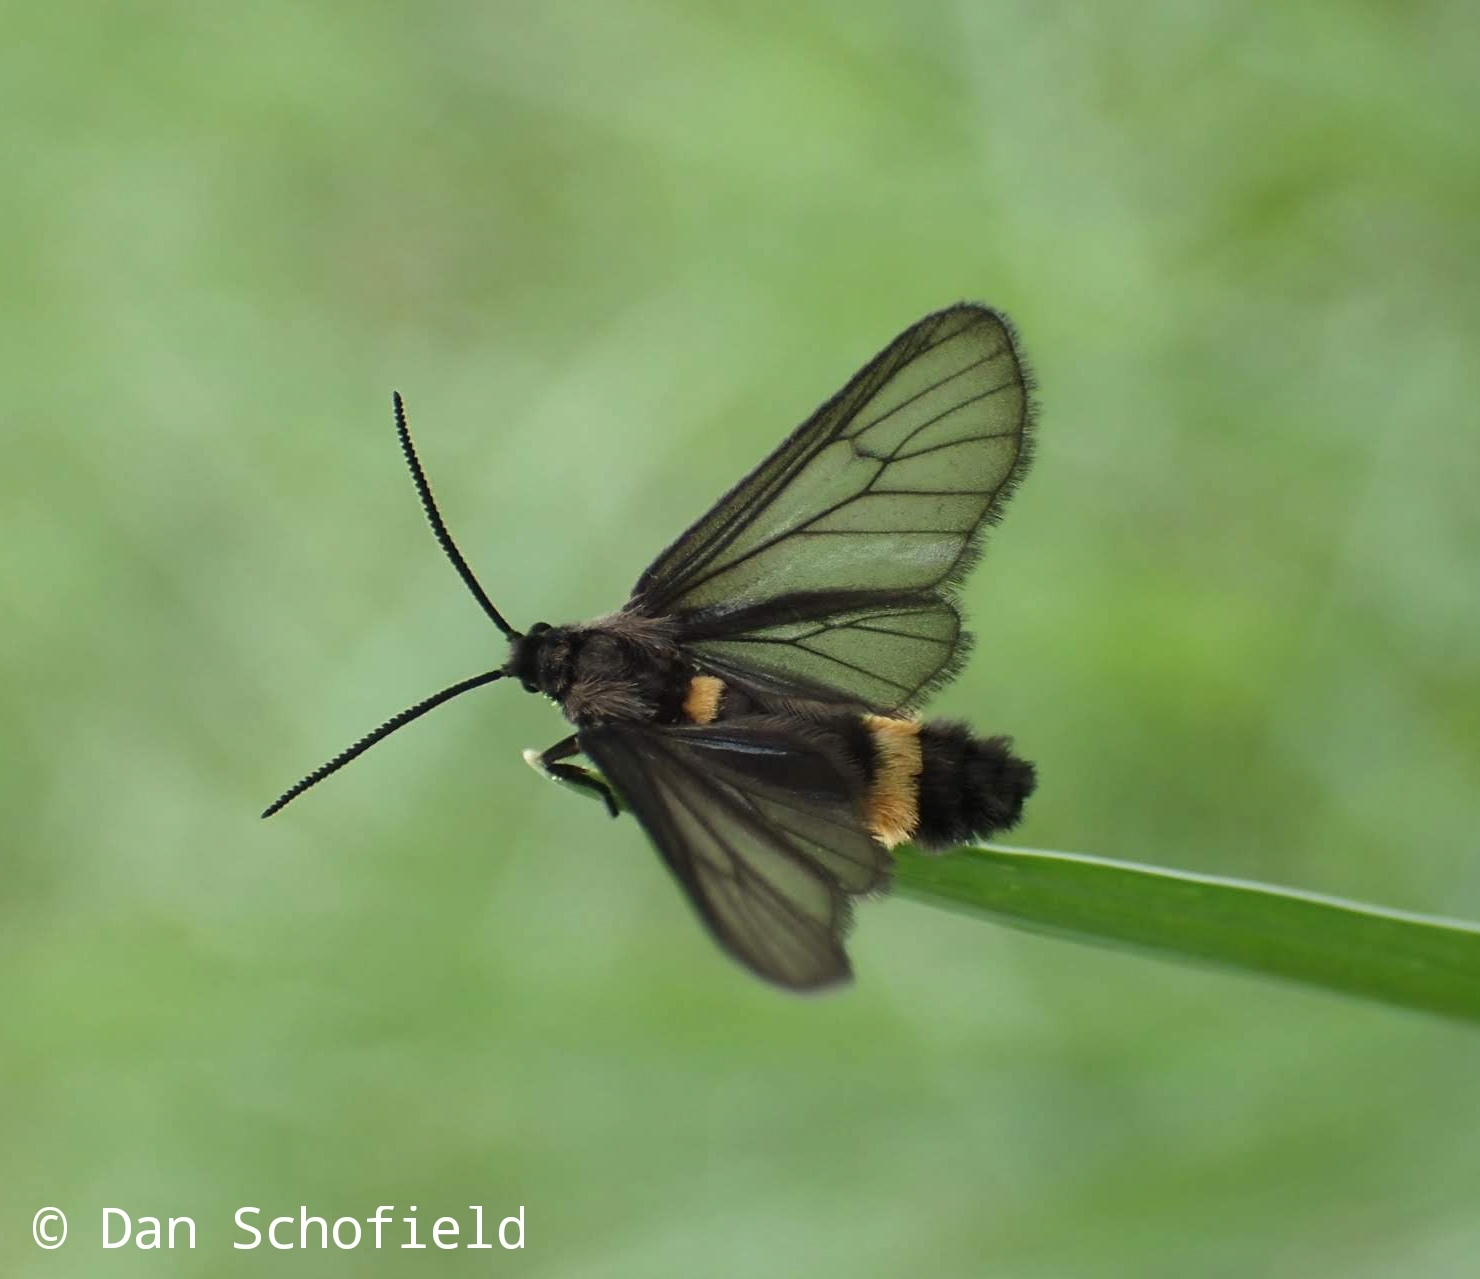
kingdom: Animalia
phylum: Arthropoda
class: Insecta
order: Lepidoptera
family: Erebidae
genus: Psichotoe
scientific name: Psichotoe duvauceli
